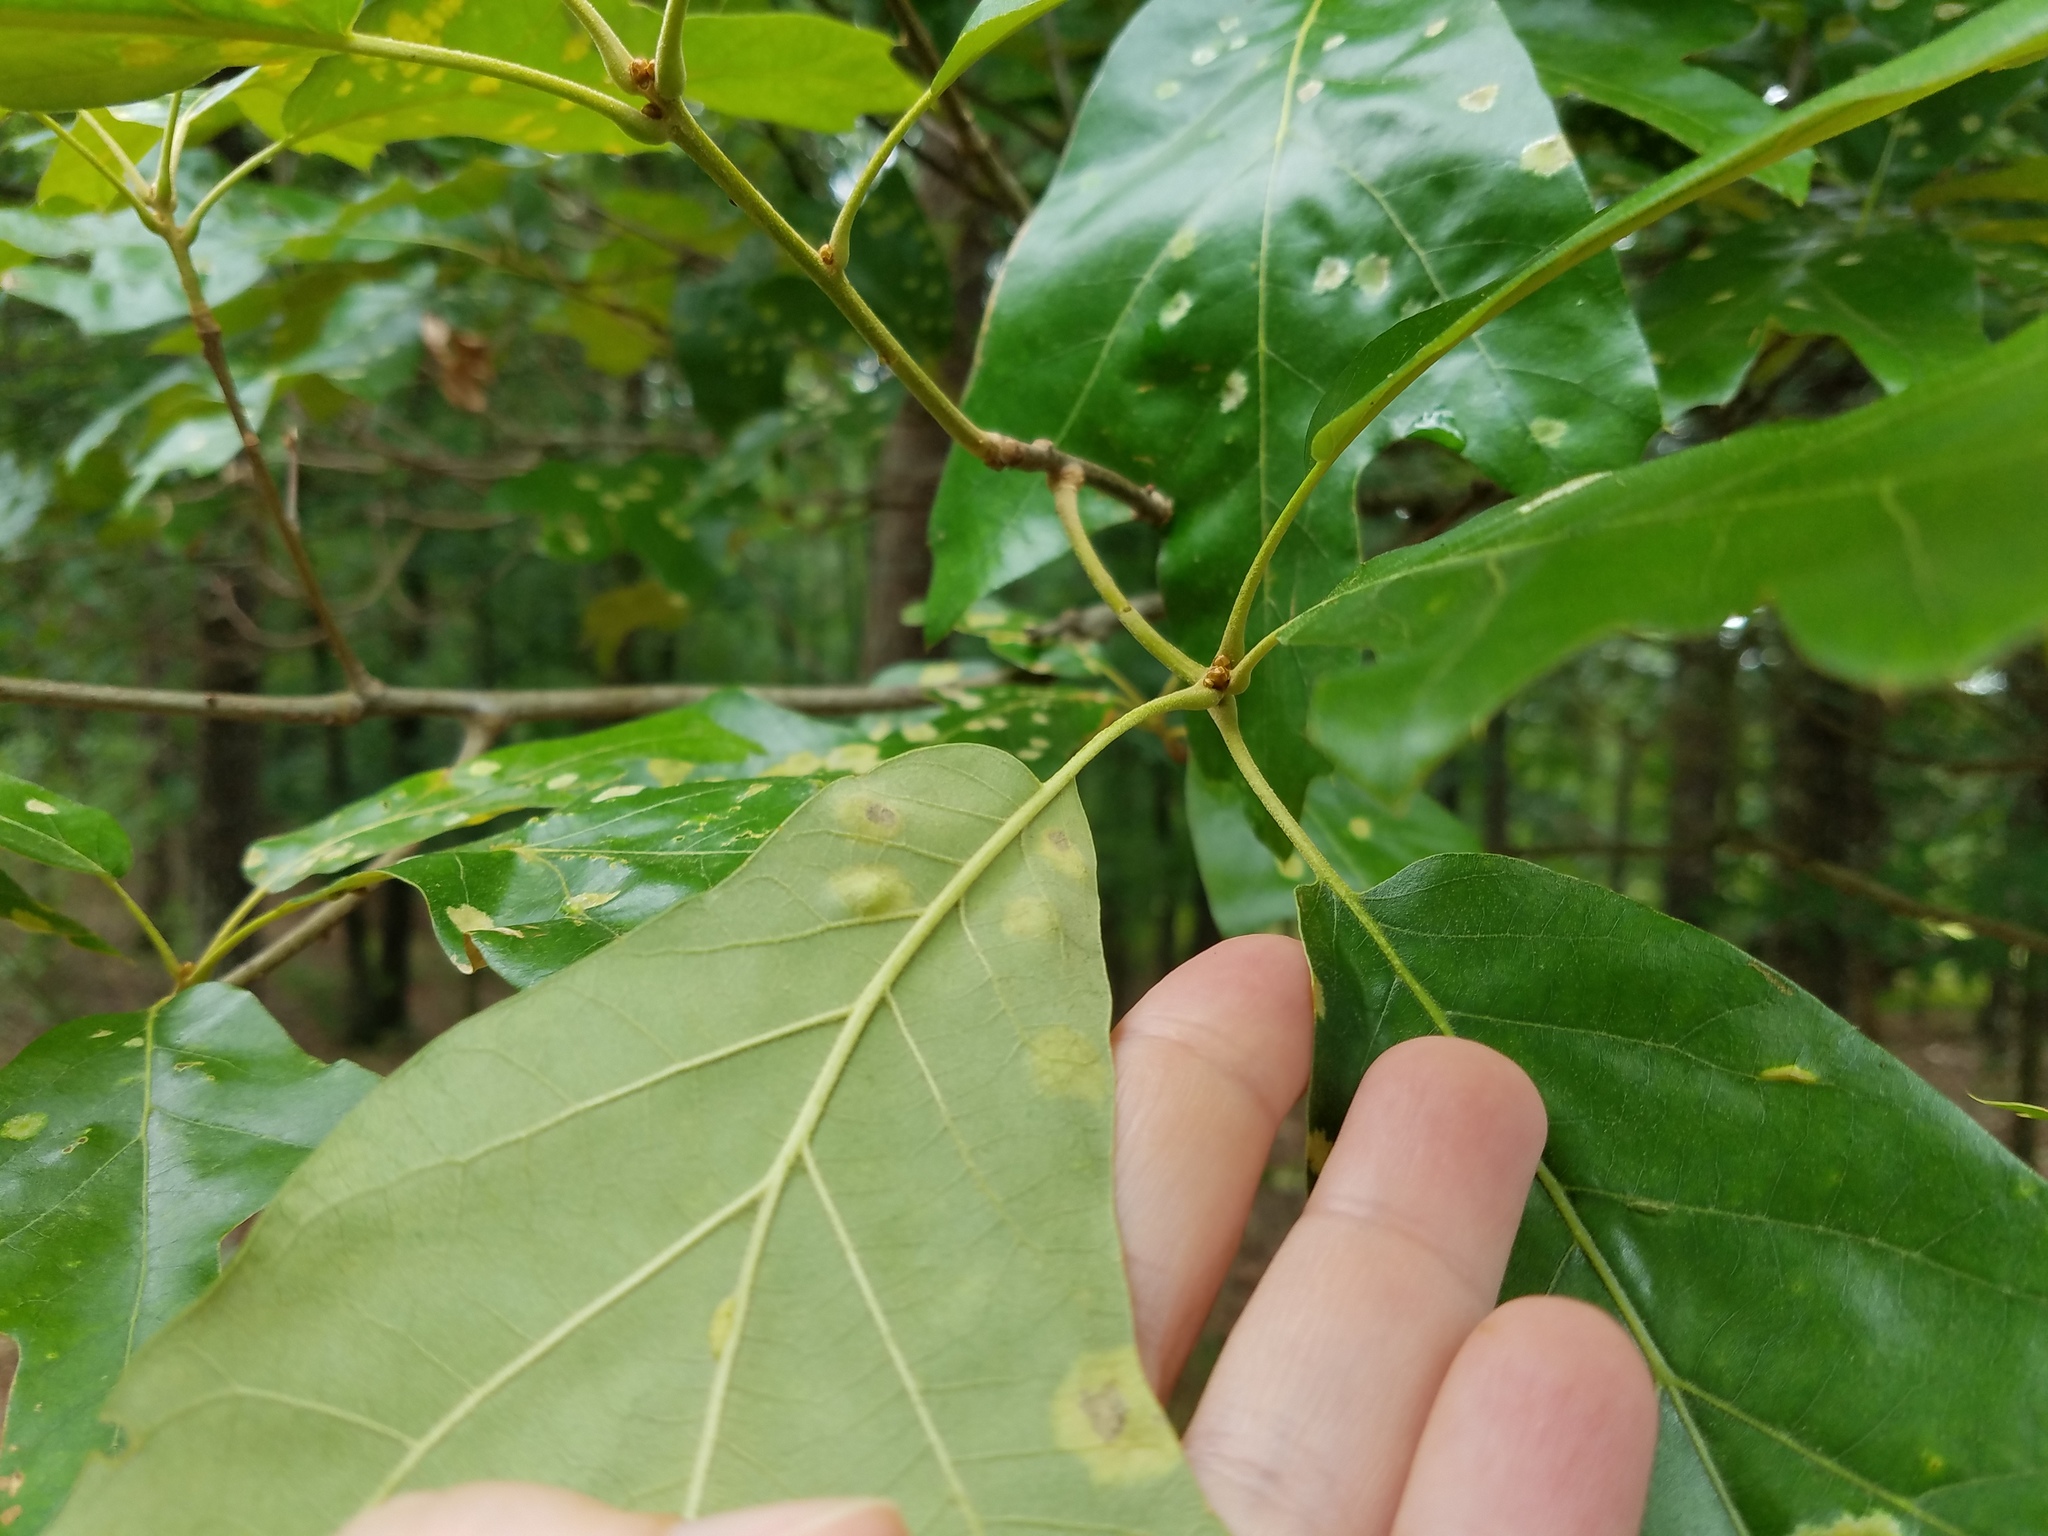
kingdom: Plantae
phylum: Tracheophyta
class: Magnoliopsida
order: Fagales
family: Fagaceae
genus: Quercus
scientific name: Quercus falcata
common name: Southern red oak
